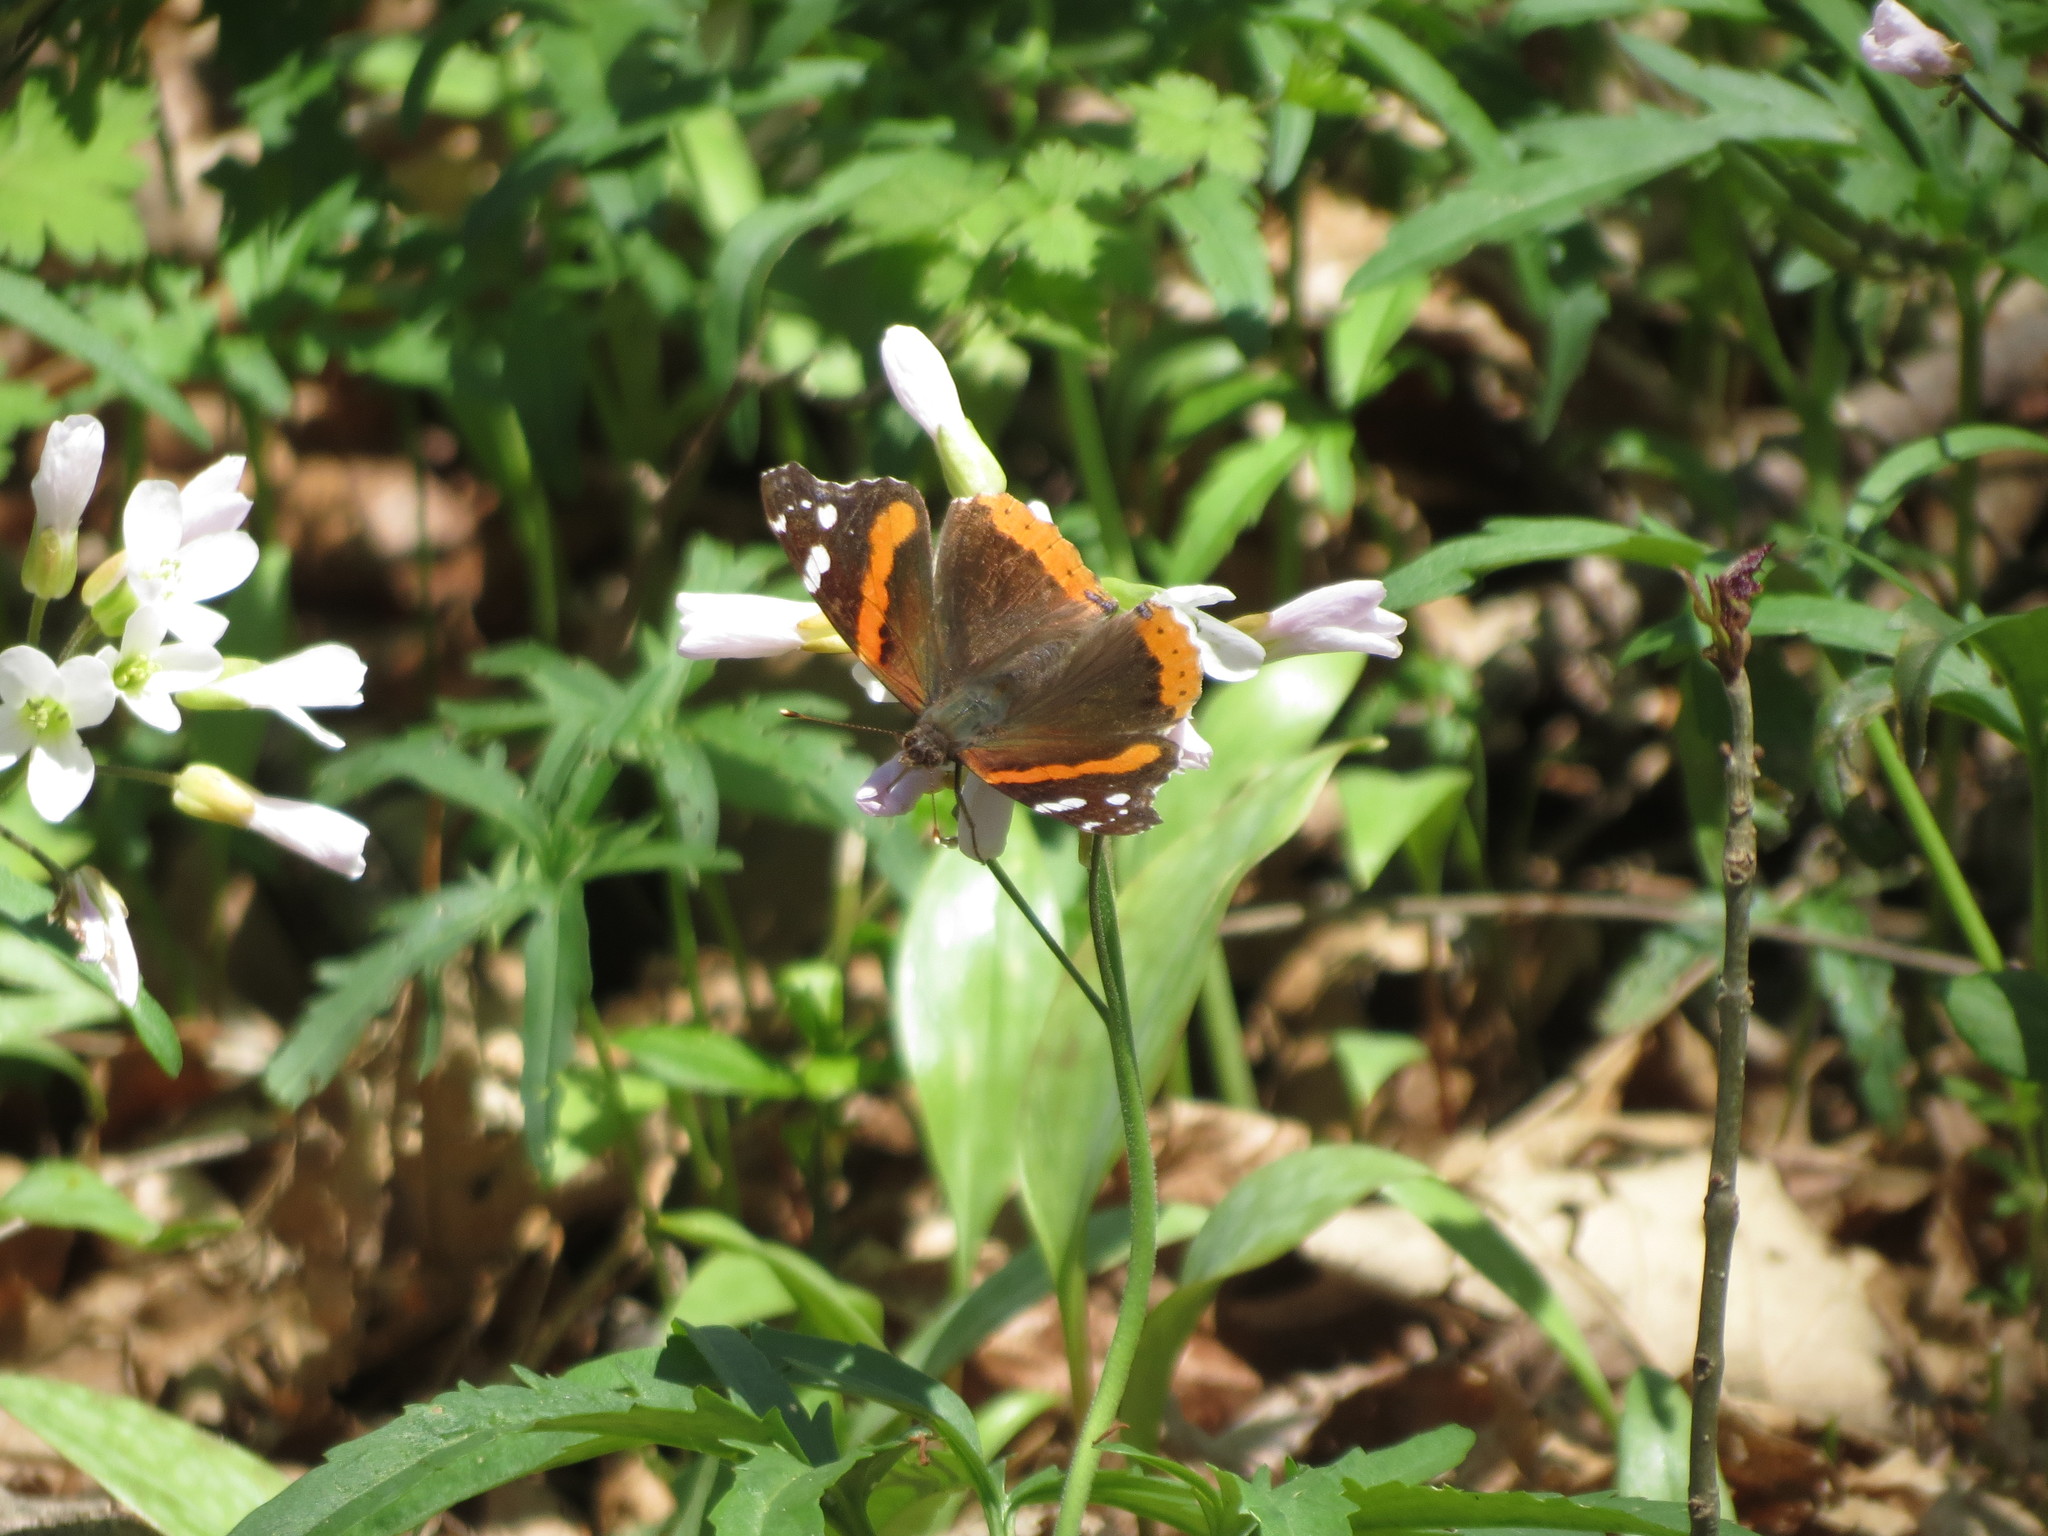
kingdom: Animalia
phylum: Arthropoda
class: Insecta
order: Lepidoptera
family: Nymphalidae
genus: Vanessa
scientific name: Vanessa atalanta
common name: Red admiral
